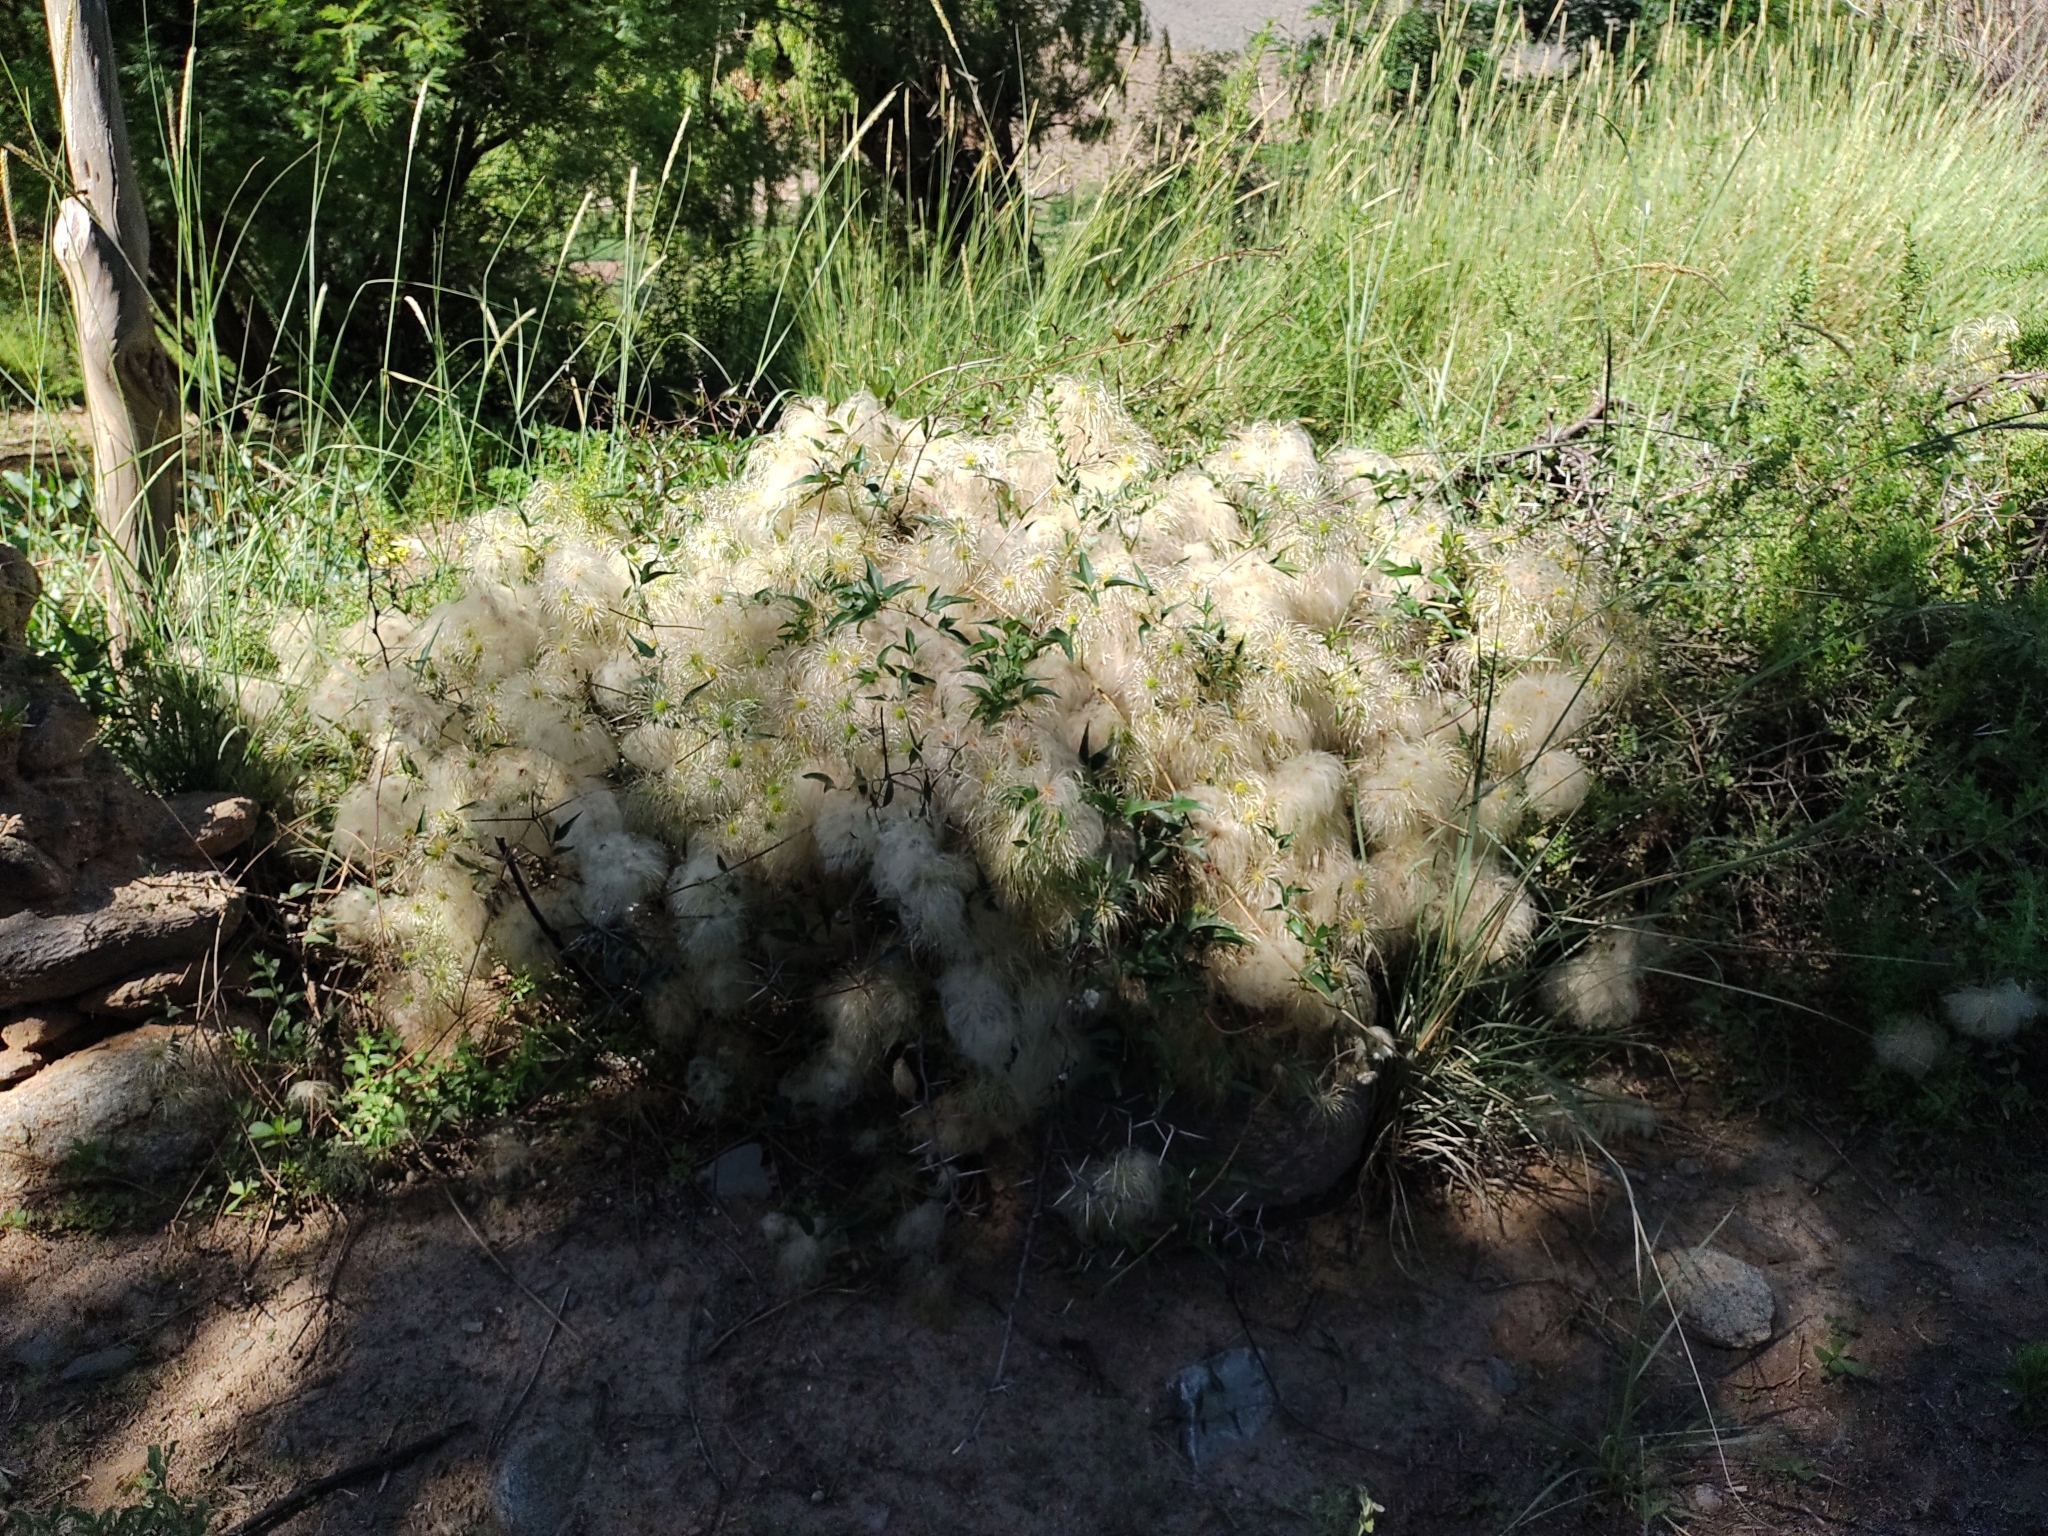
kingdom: Plantae
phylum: Tracheophyta
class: Magnoliopsida
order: Ranunculales
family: Ranunculaceae
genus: Clematis
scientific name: Clematis montevidensis
